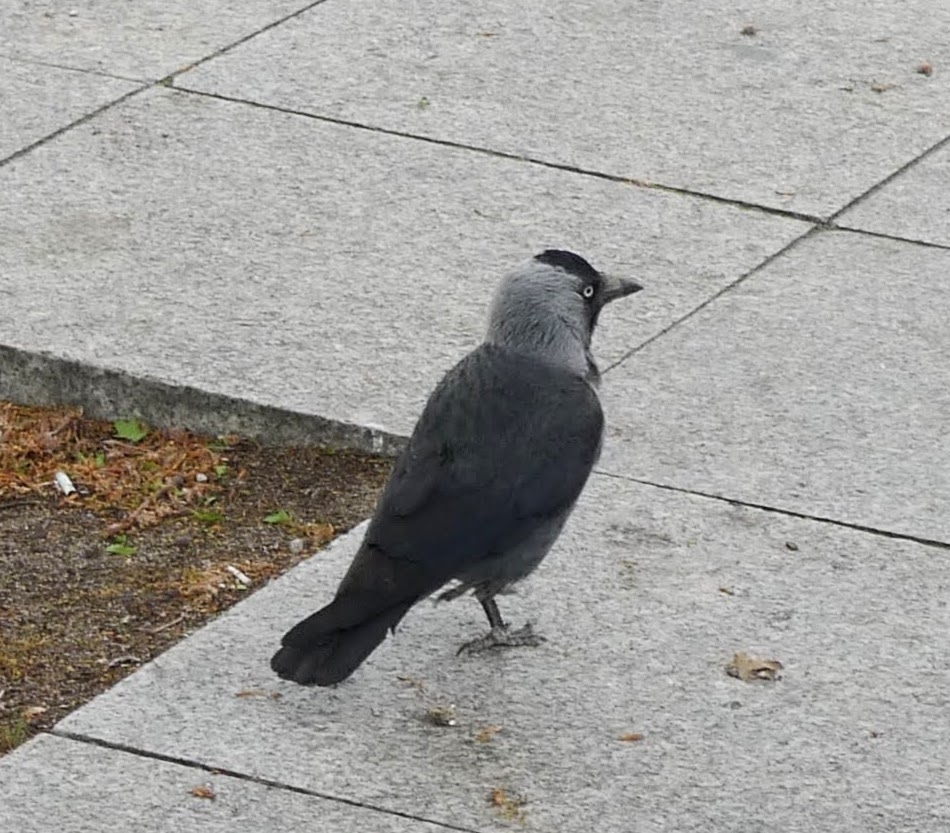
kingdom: Animalia
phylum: Chordata
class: Aves
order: Passeriformes
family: Corvidae
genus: Coloeus
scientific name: Coloeus monedula
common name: Western jackdaw
